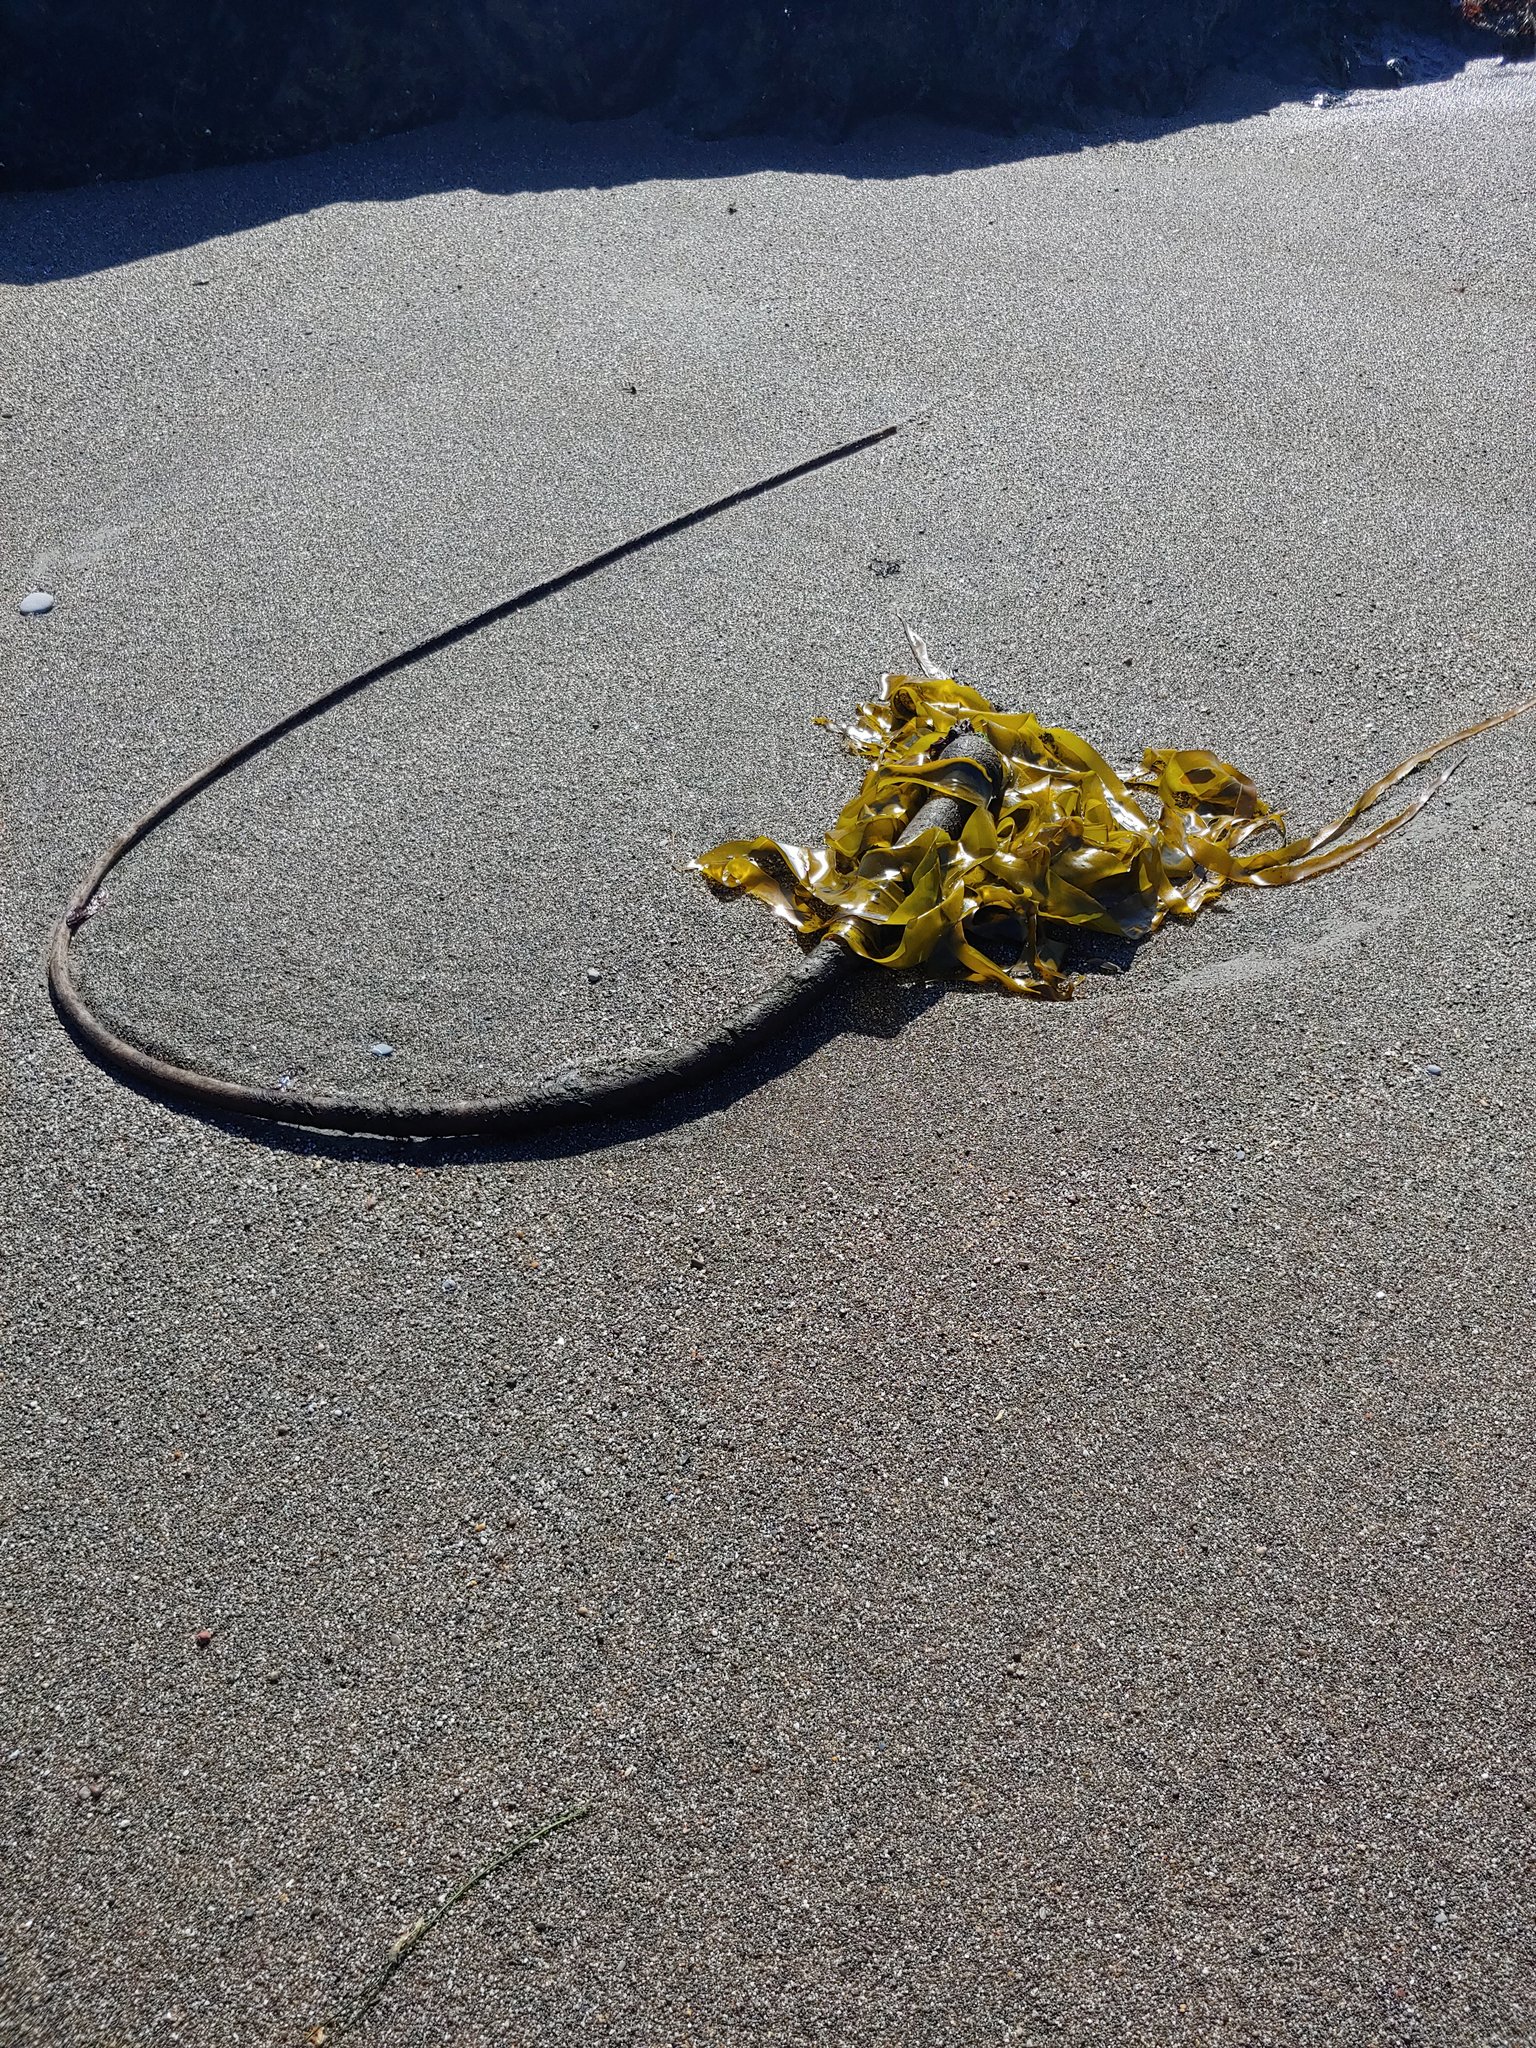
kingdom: Chromista
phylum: Ochrophyta
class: Phaeophyceae
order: Laminariales
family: Laminariaceae
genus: Nereocystis
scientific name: Nereocystis luetkeana
